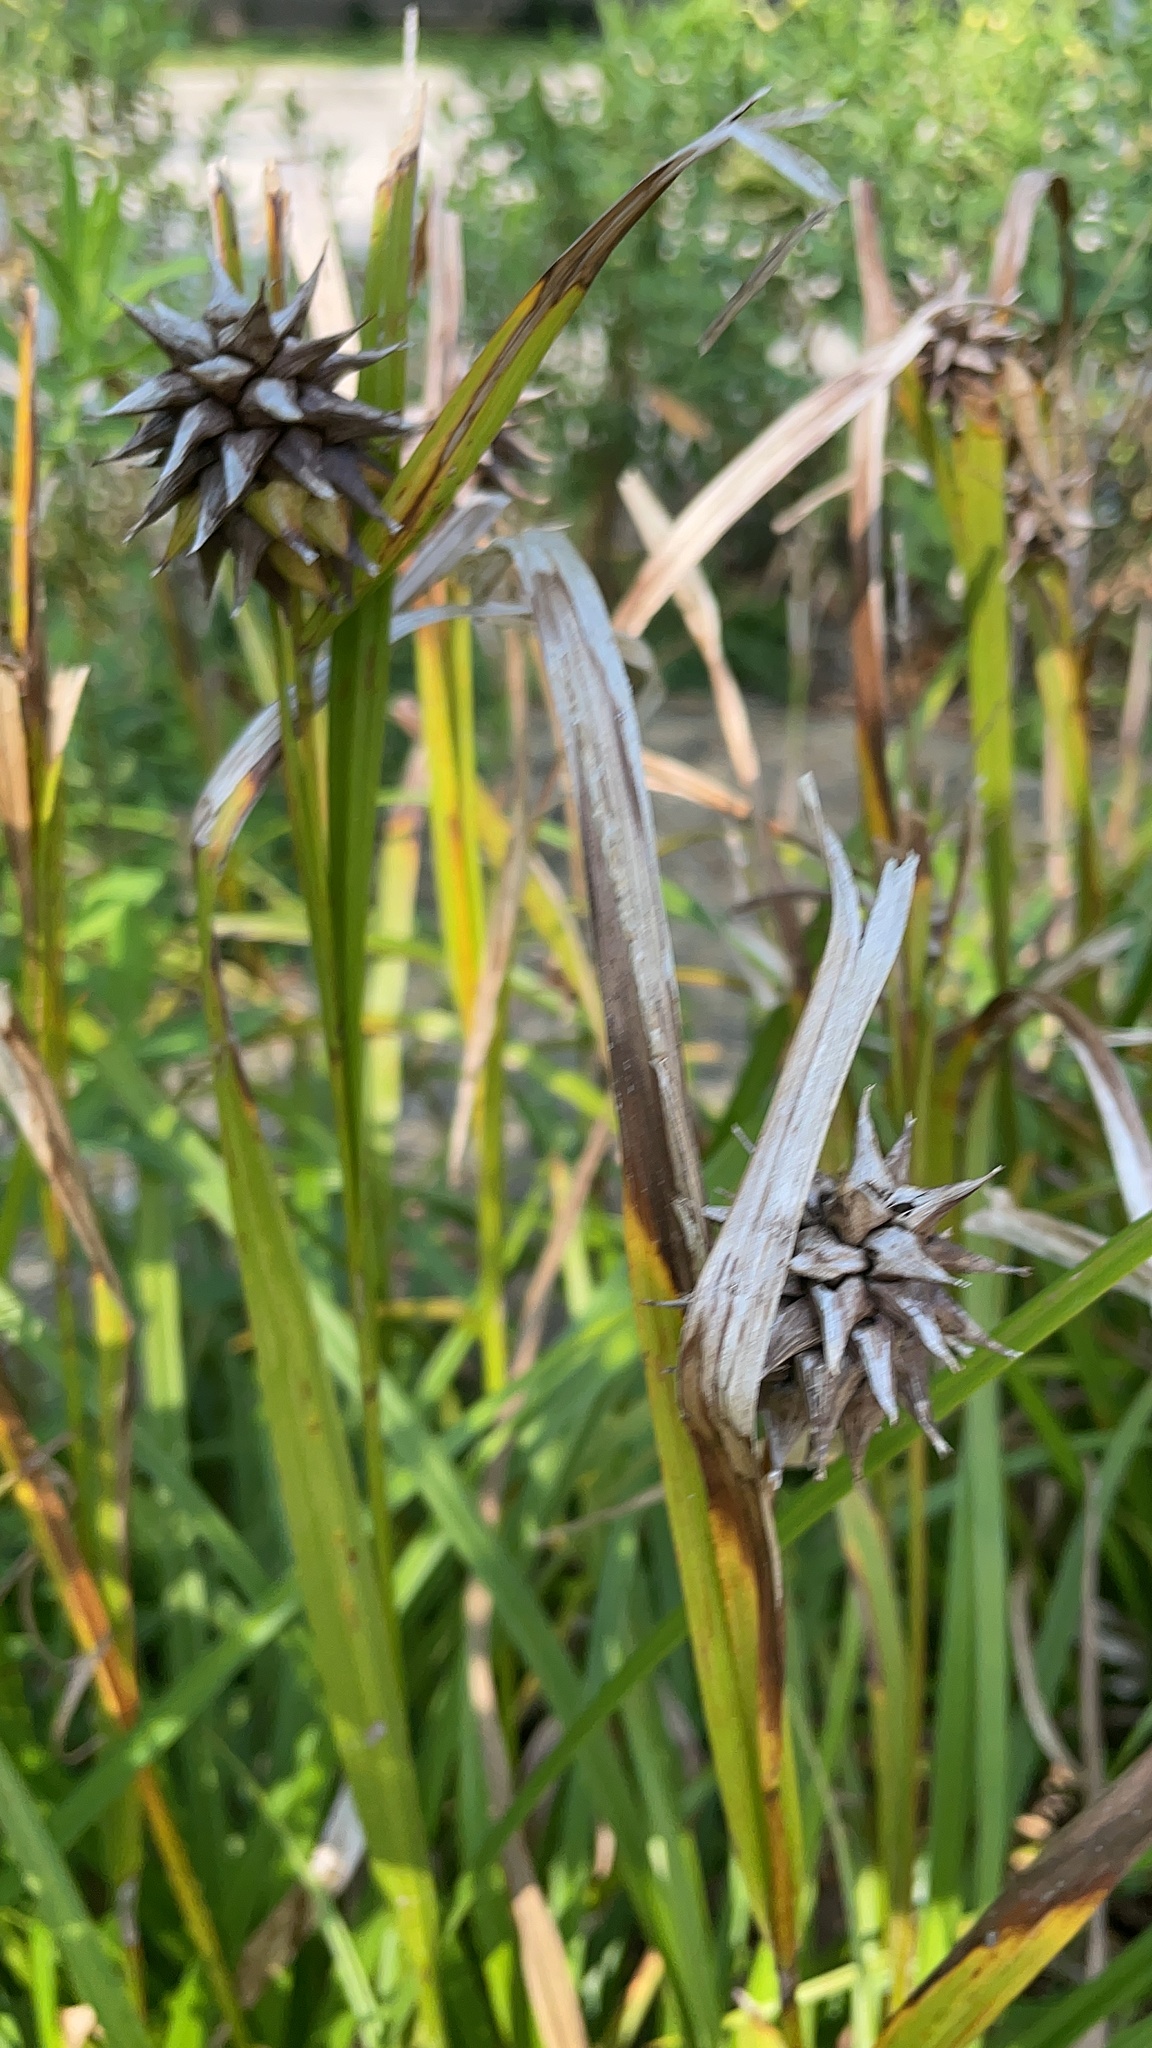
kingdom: Plantae
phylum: Tracheophyta
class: Liliopsida
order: Poales
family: Cyperaceae
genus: Carex
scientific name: Carex grayi
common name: Asa gray's sedge
